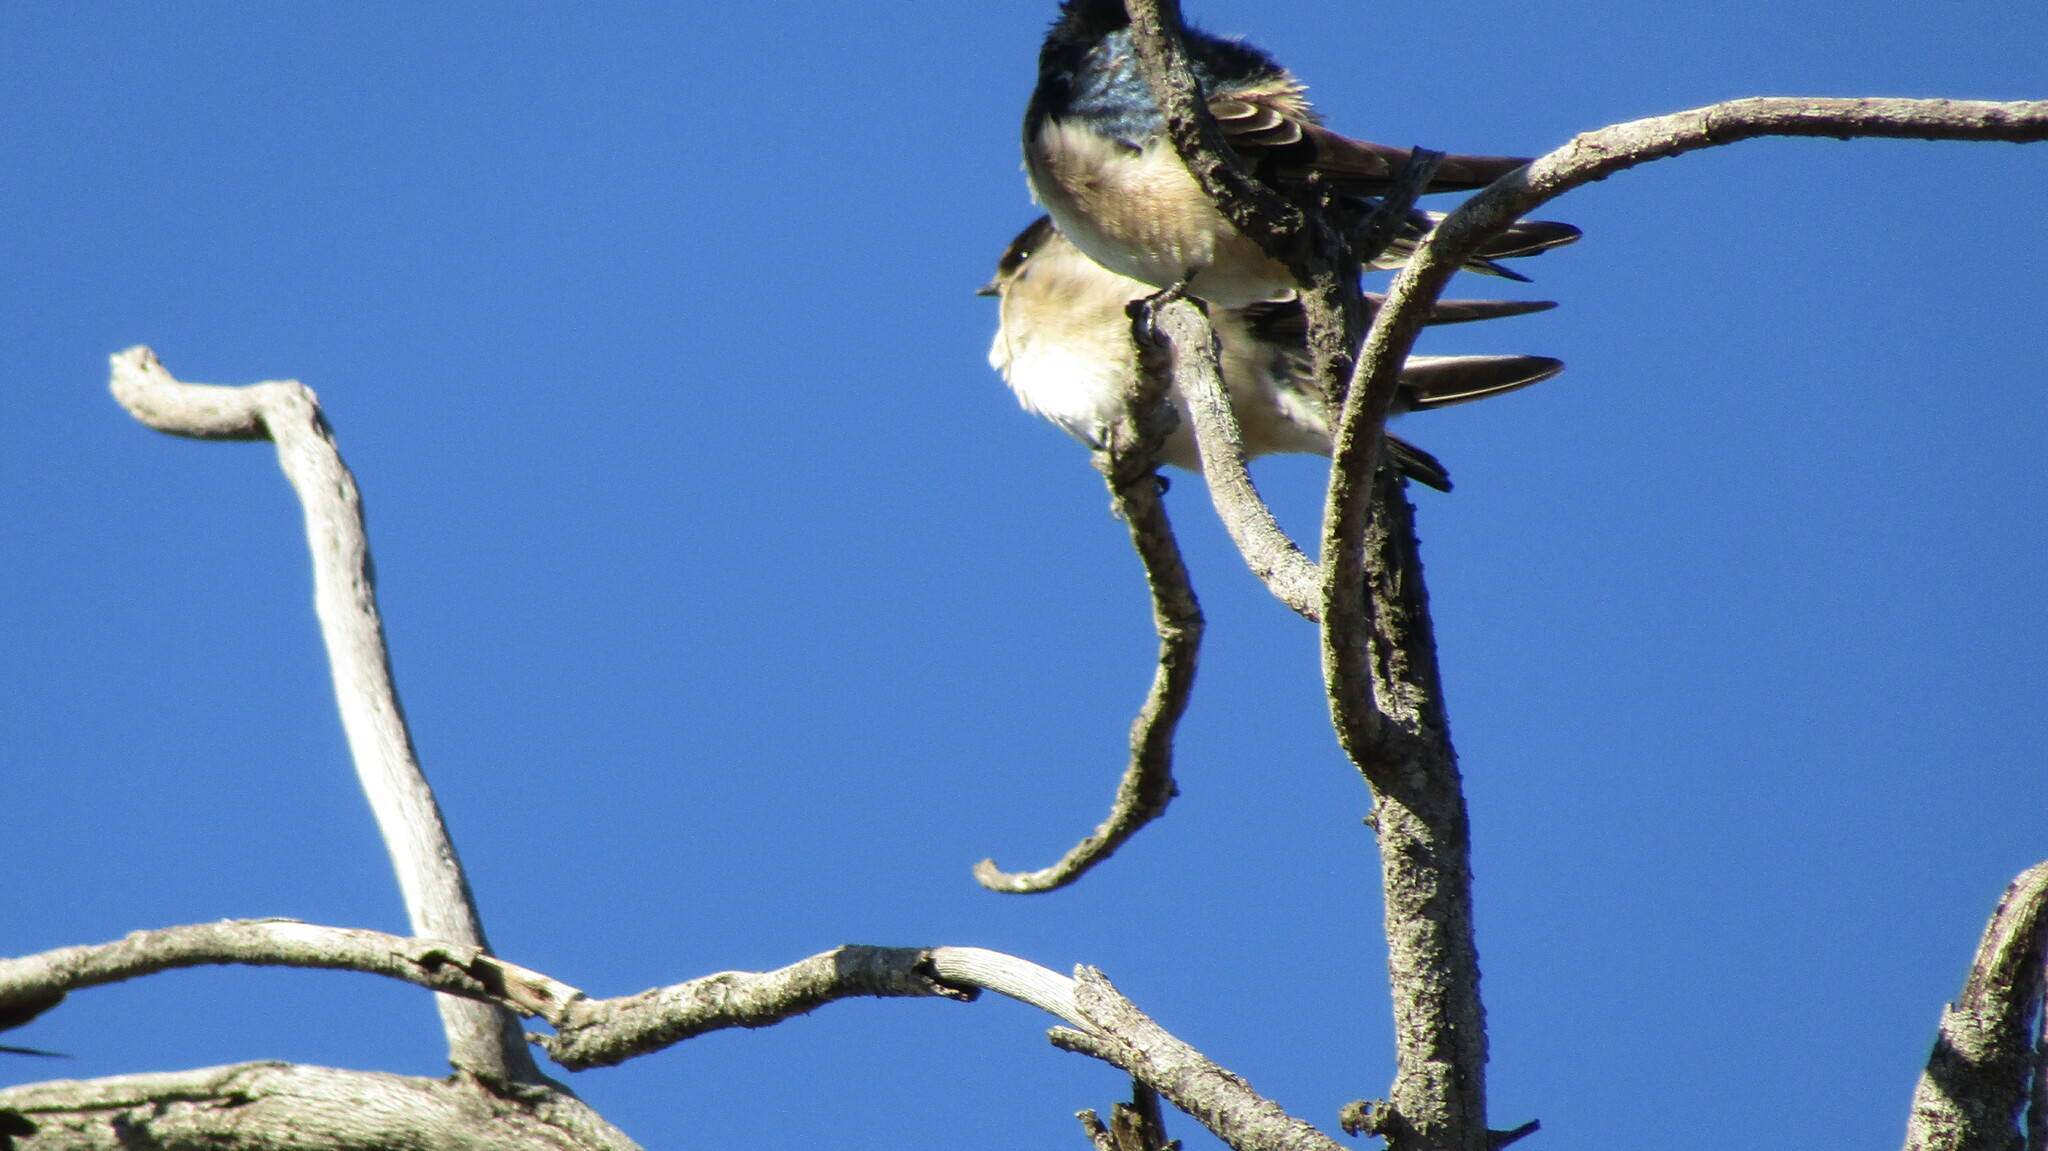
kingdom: Animalia
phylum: Chordata
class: Aves
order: Passeriformes
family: Hirundinidae
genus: Petrochelidon
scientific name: Petrochelidon nigricans
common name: Tree martin
